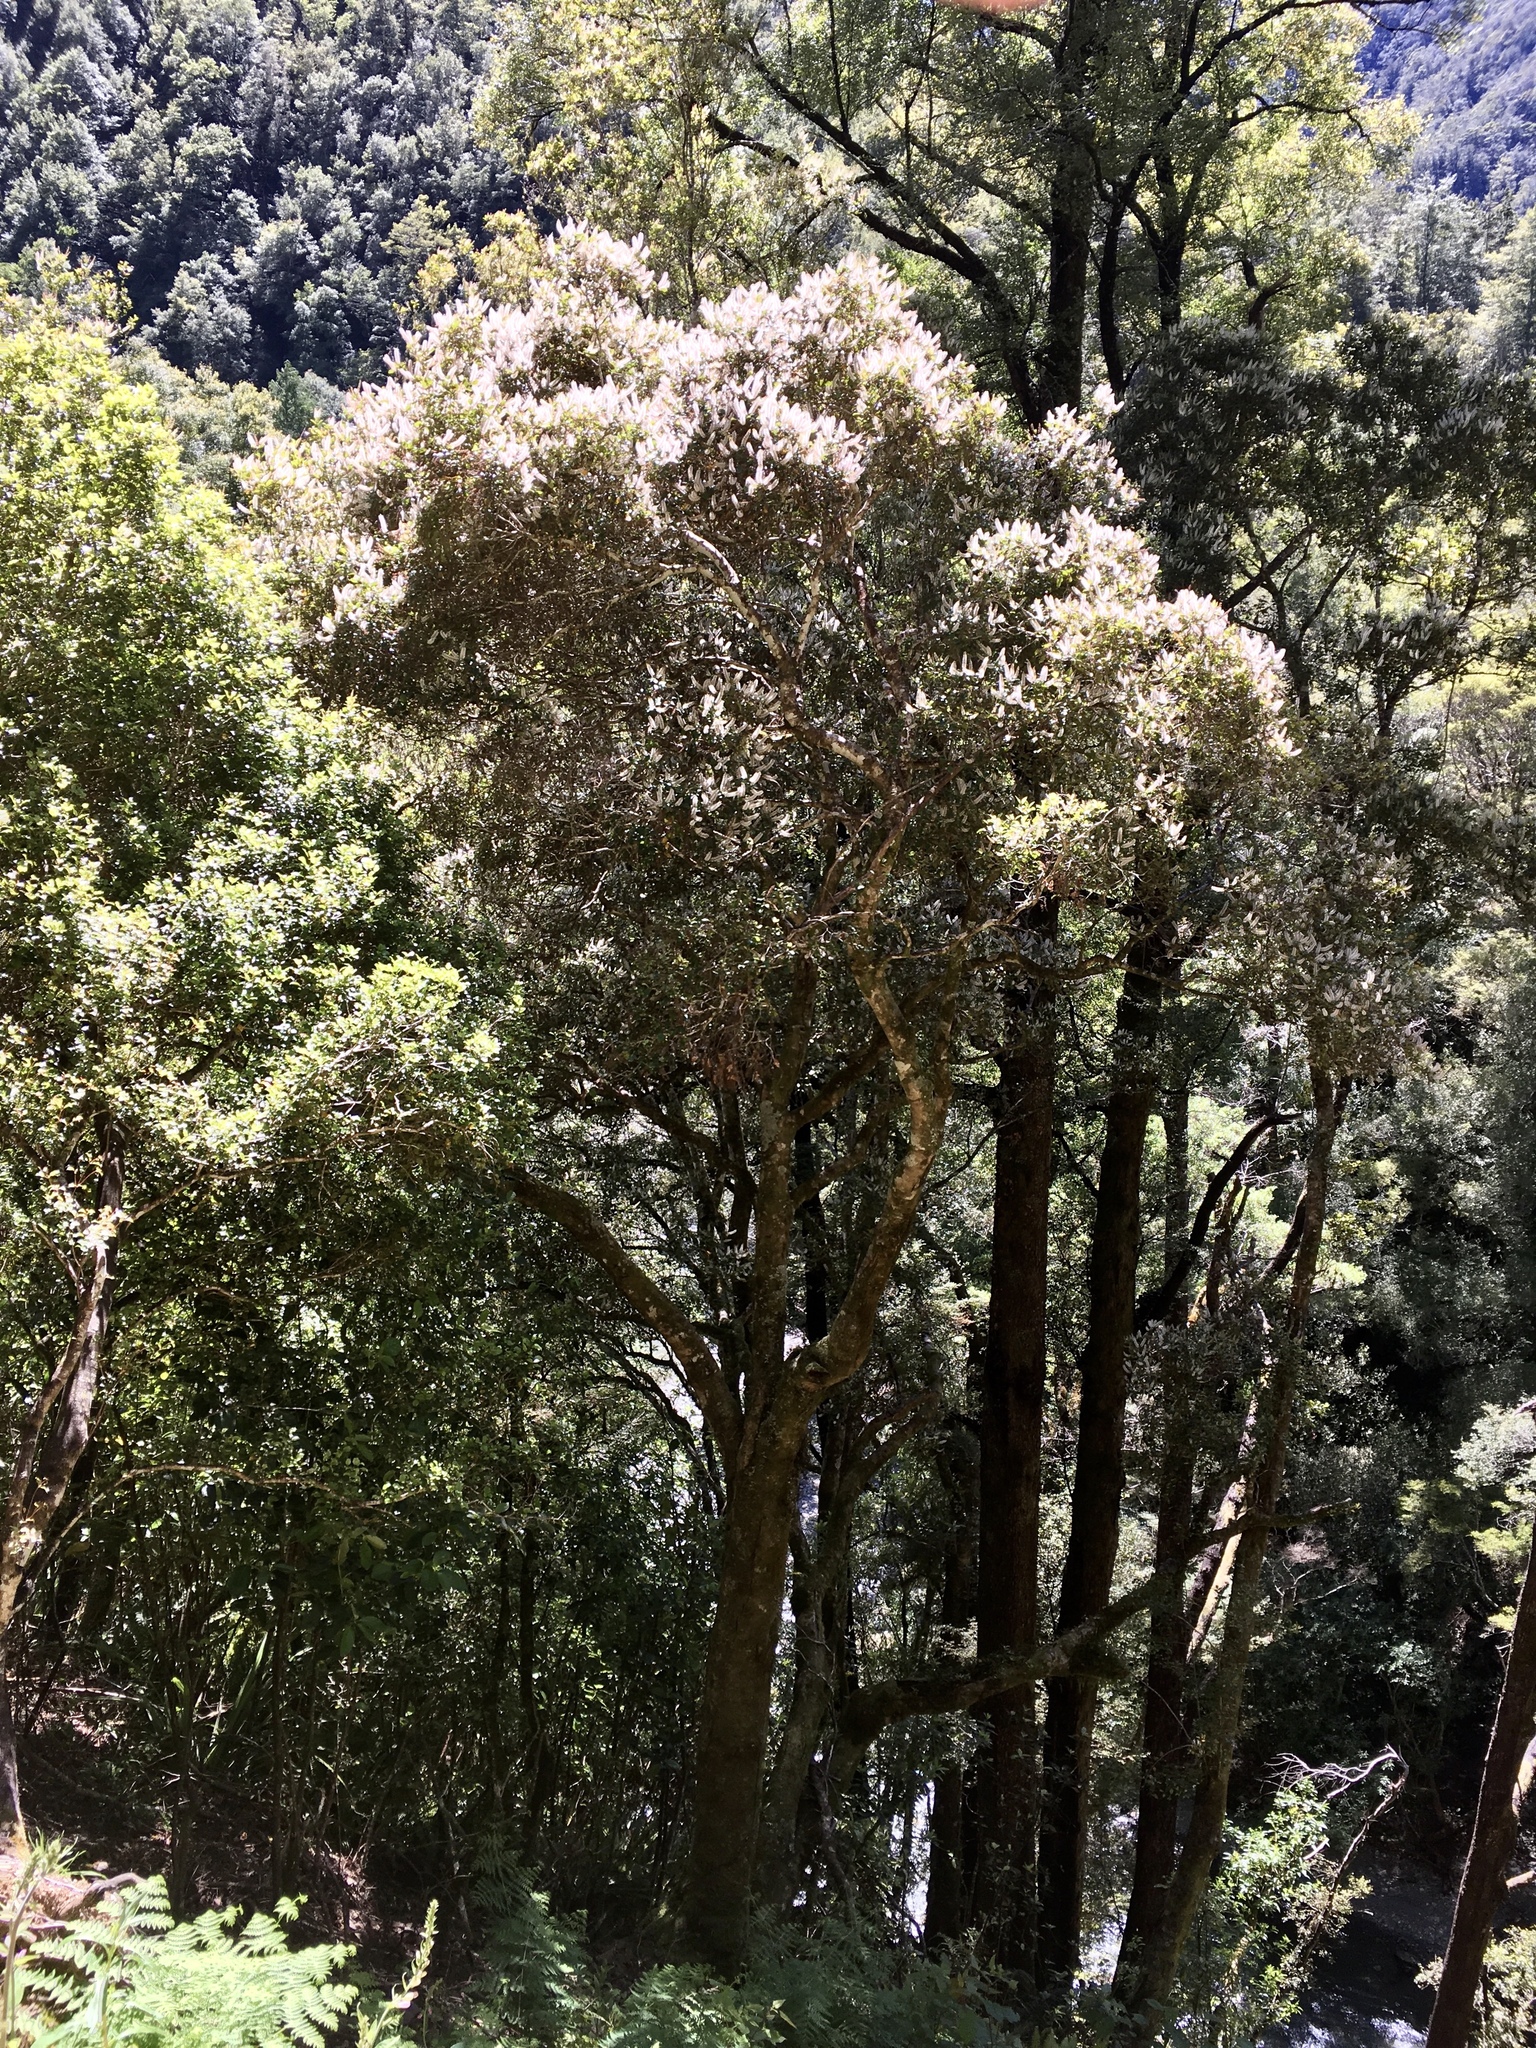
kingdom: Plantae
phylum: Tracheophyta
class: Magnoliopsida
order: Oxalidales
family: Cunoniaceae
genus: Pterophylla
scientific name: Pterophylla racemosa
